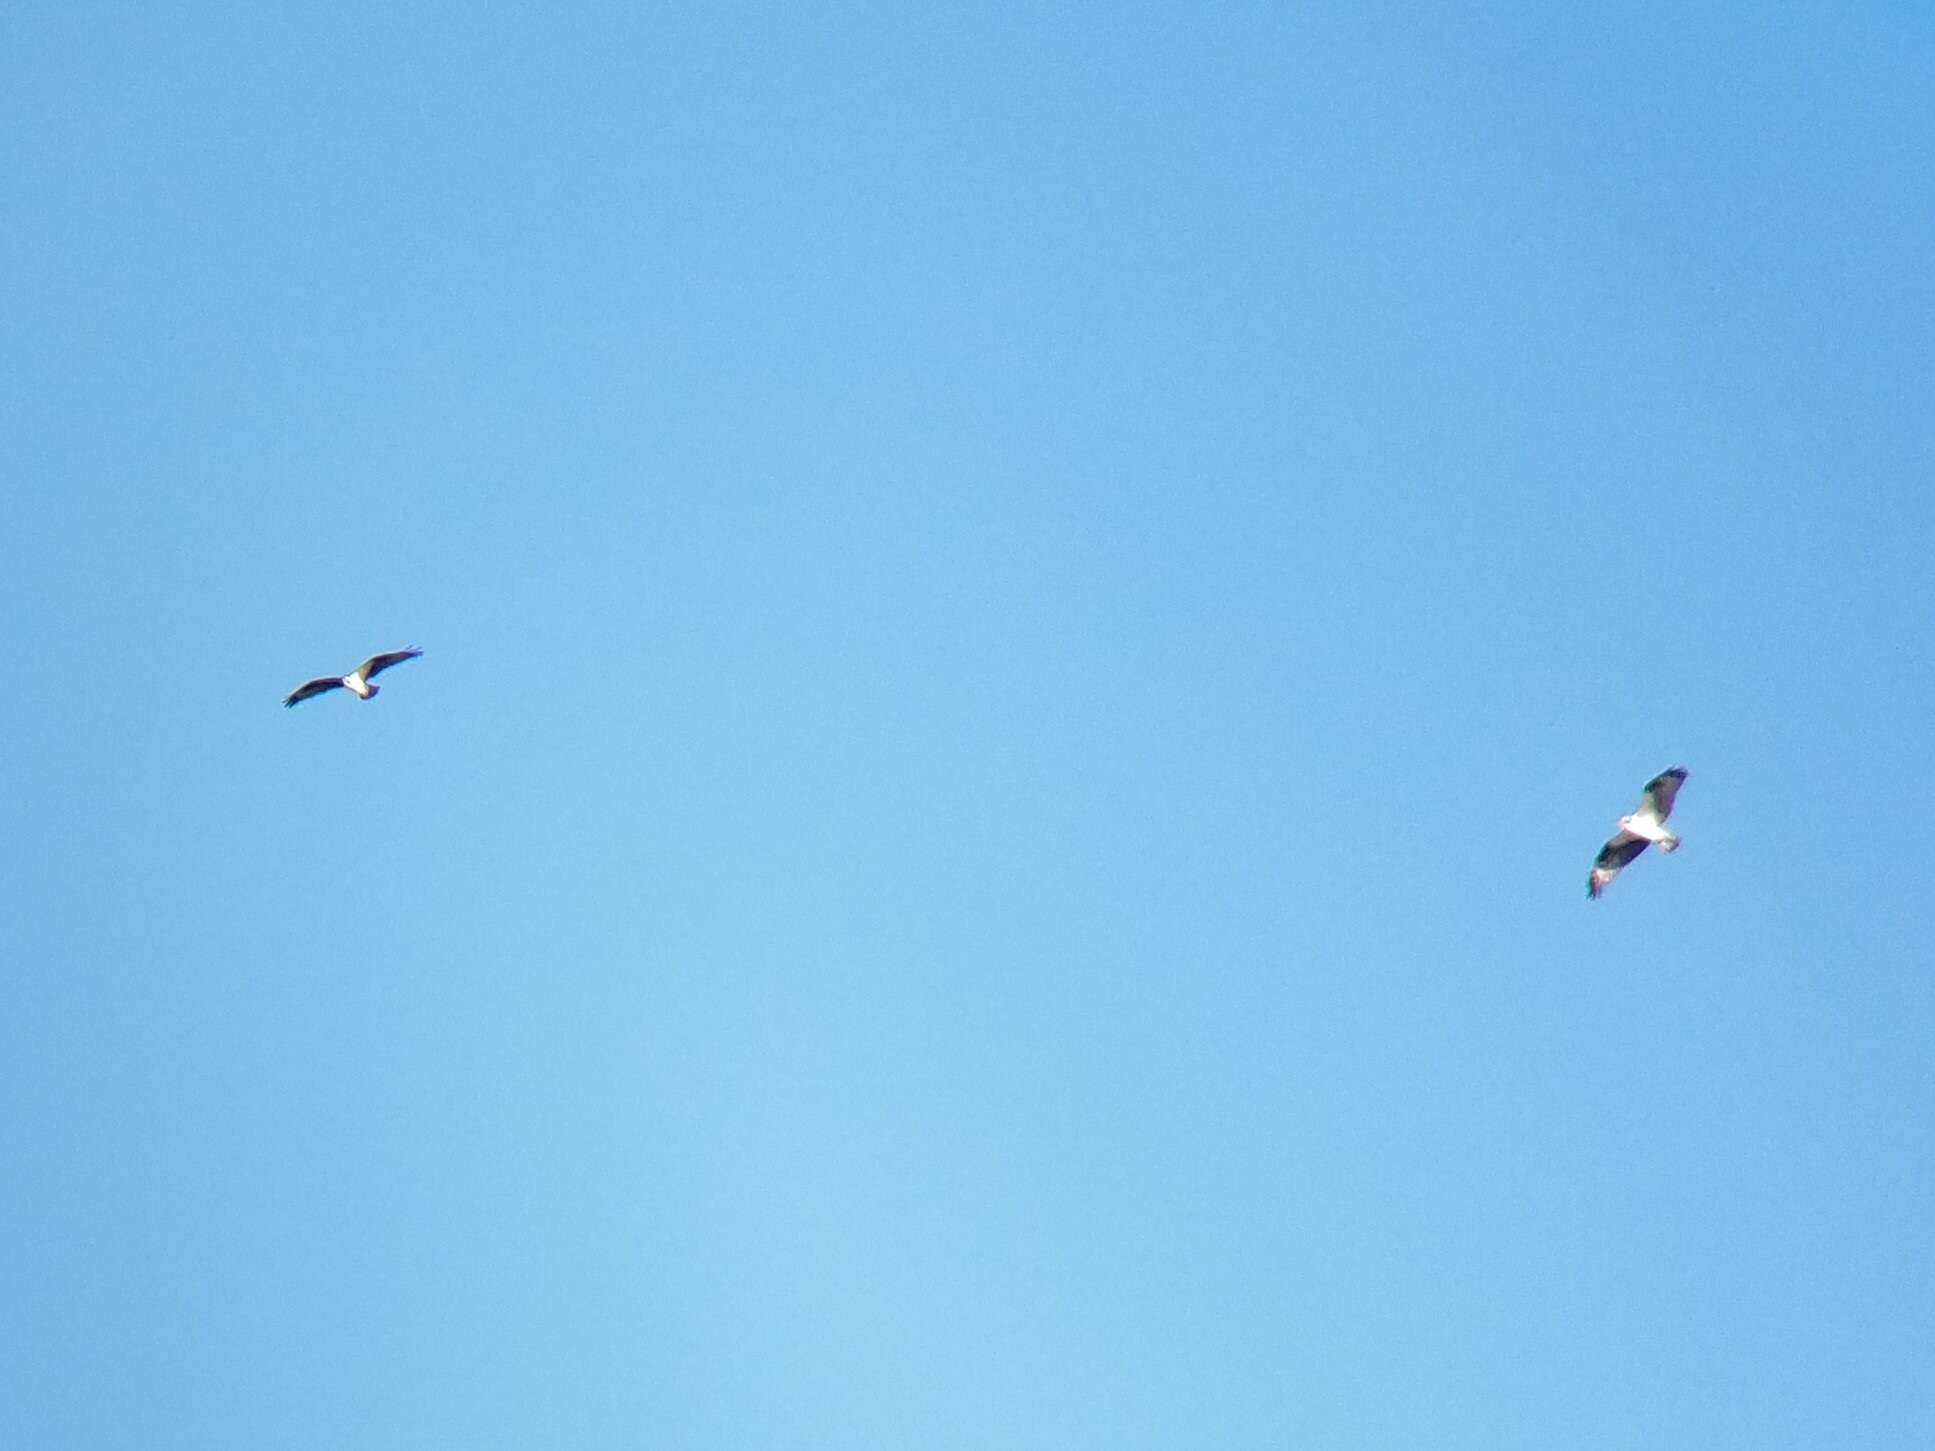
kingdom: Animalia
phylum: Chordata
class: Aves
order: Accipitriformes
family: Pandionidae
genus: Pandion
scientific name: Pandion haliaetus
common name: Osprey
